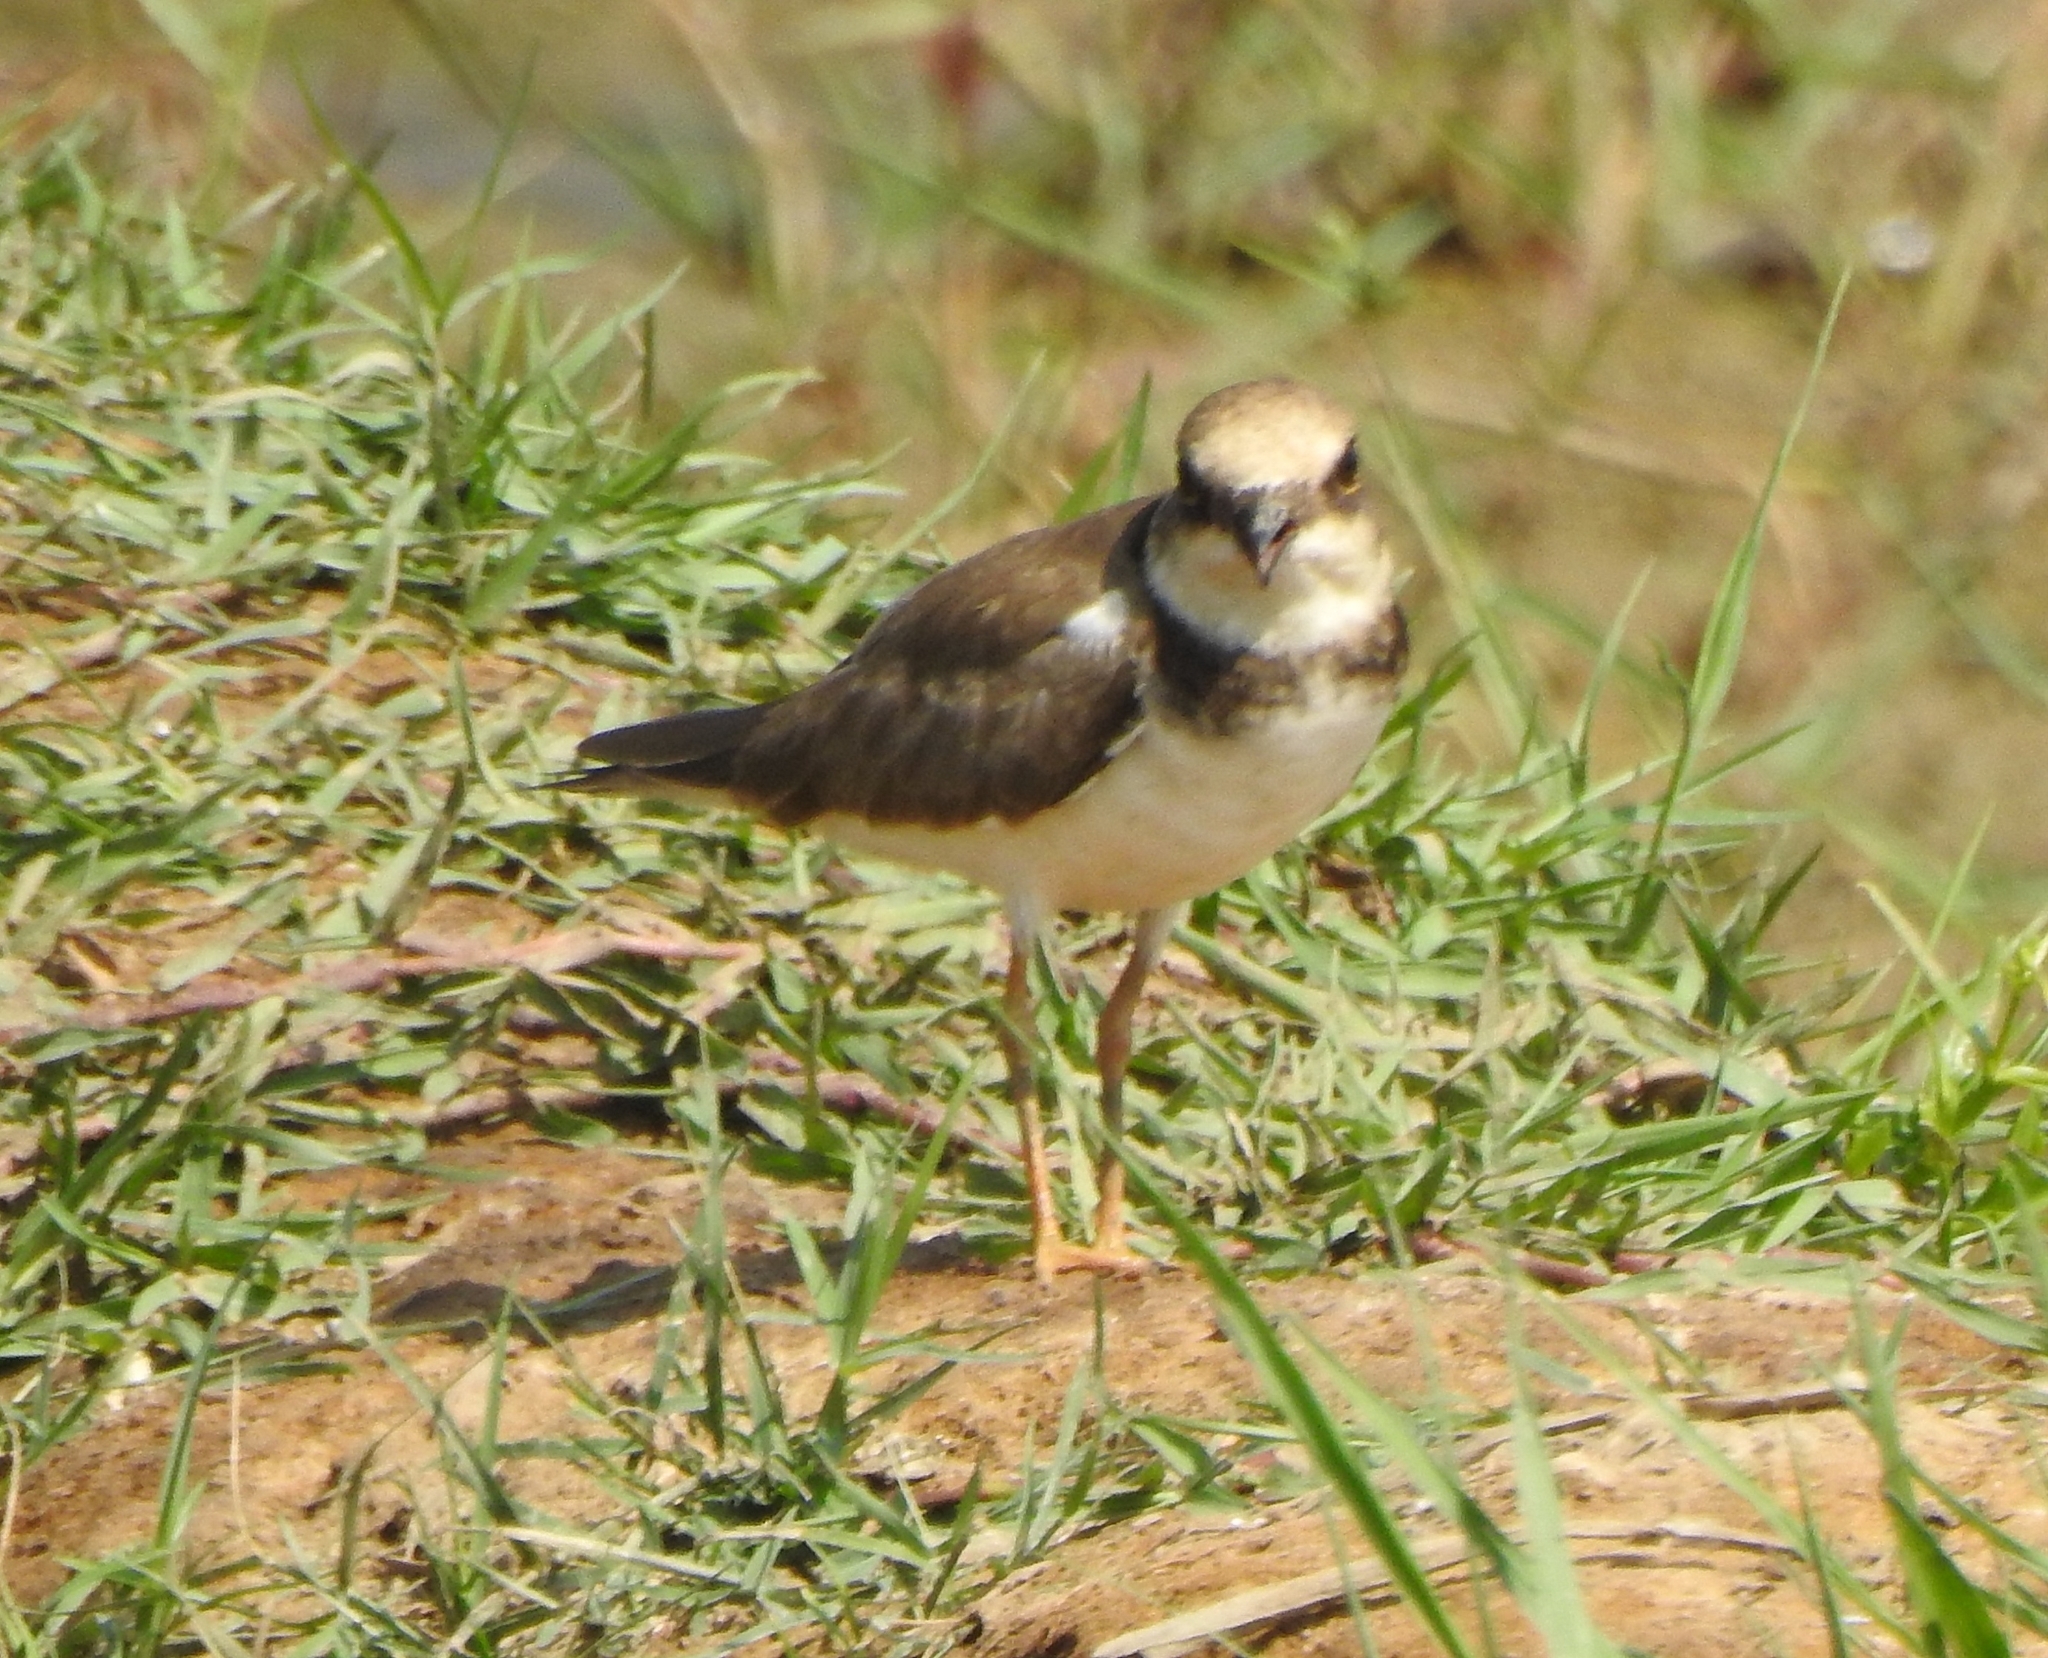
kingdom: Animalia
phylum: Chordata
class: Aves
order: Charadriiformes
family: Charadriidae
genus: Charadrius
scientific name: Charadrius dubius
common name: Little ringed plover
